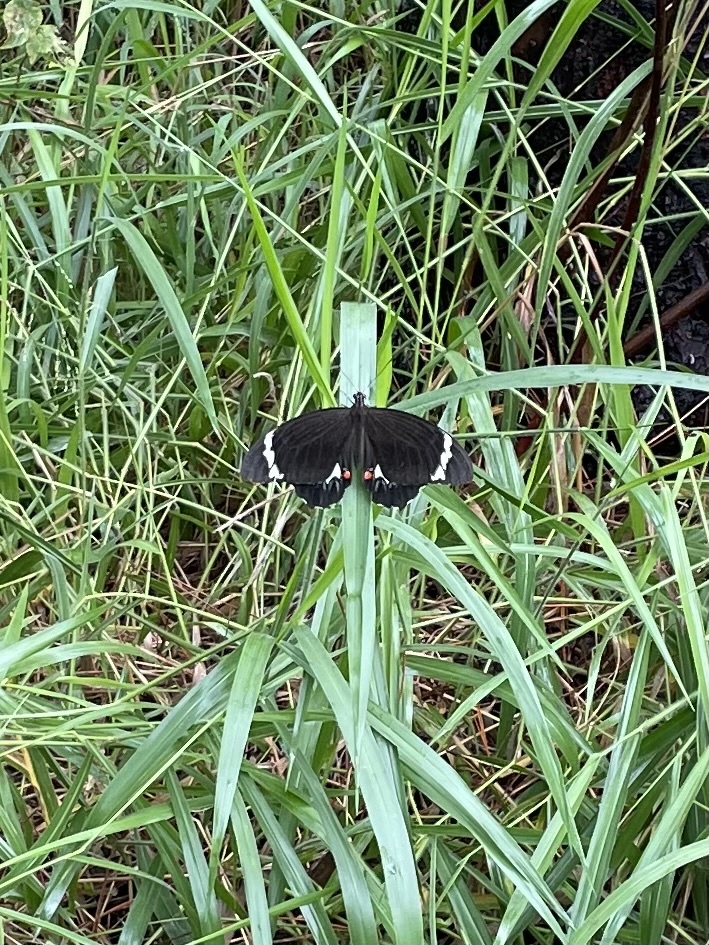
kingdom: Animalia
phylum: Arthropoda
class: Insecta
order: Lepidoptera
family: Papilionidae
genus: Papilio
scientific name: Papilio aegeus
